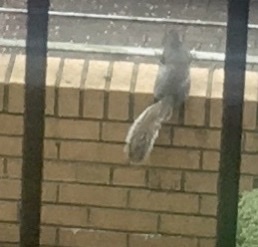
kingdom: Animalia
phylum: Chordata
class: Mammalia
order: Rodentia
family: Sciuridae
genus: Sciurus
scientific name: Sciurus carolinensis
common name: Eastern gray squirrel
